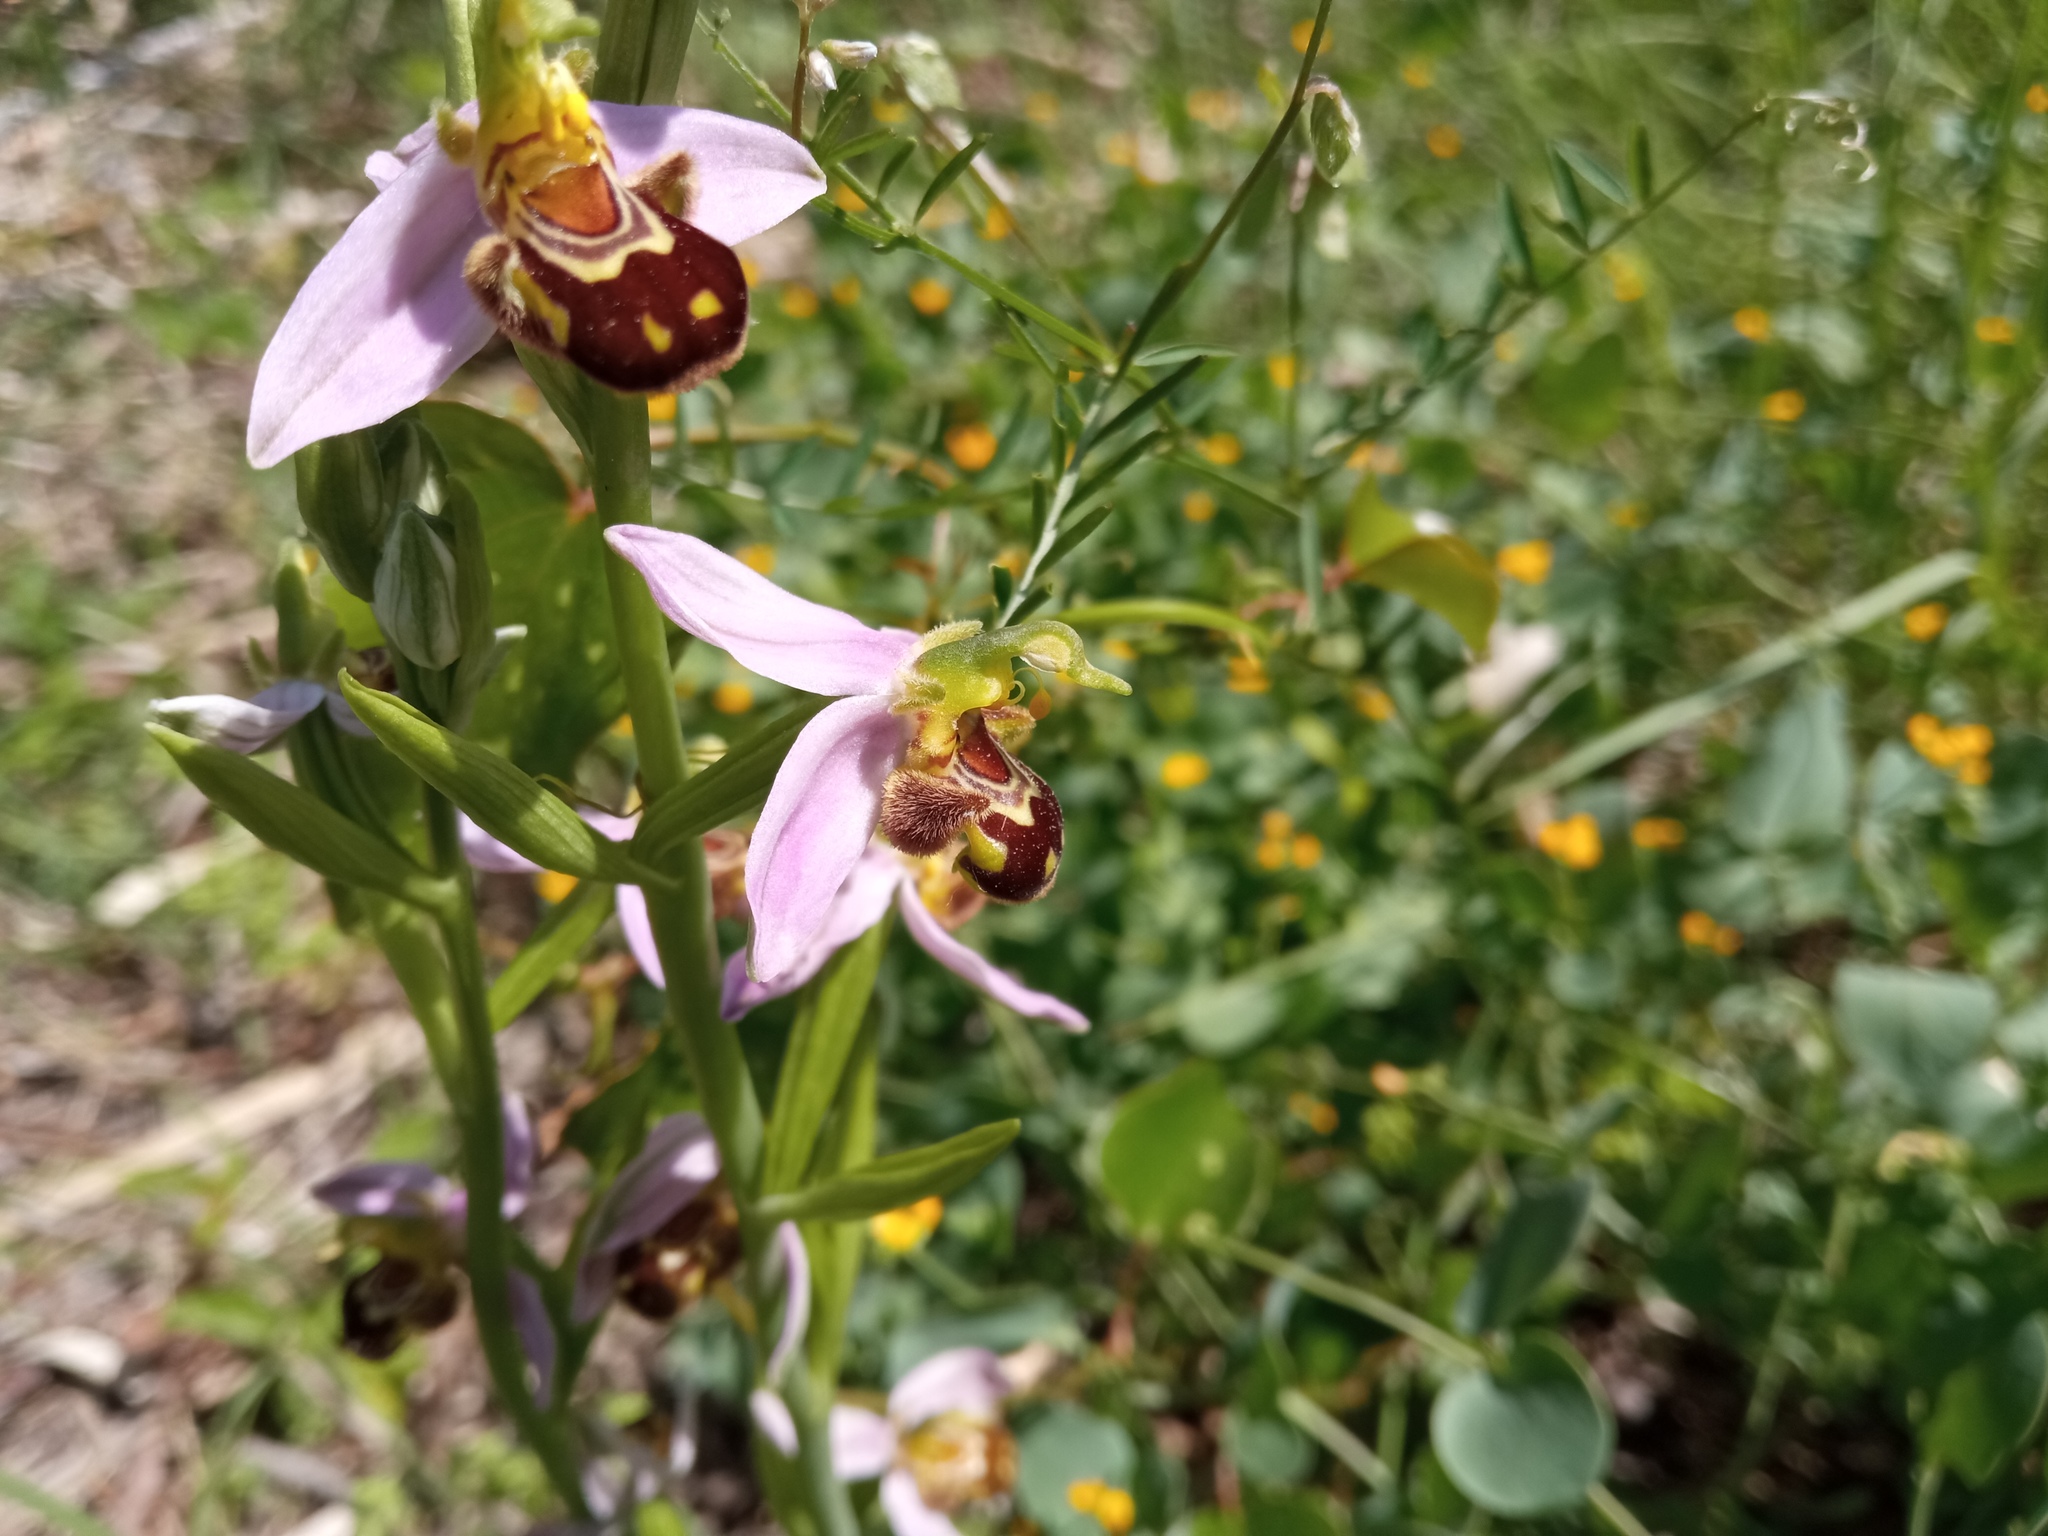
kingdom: Plantae
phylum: Tracheophyta
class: Liliopsida
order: Asparagales
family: Orchidaceae
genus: Ophrys
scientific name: Ophrys apifera
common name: Bee orchid
